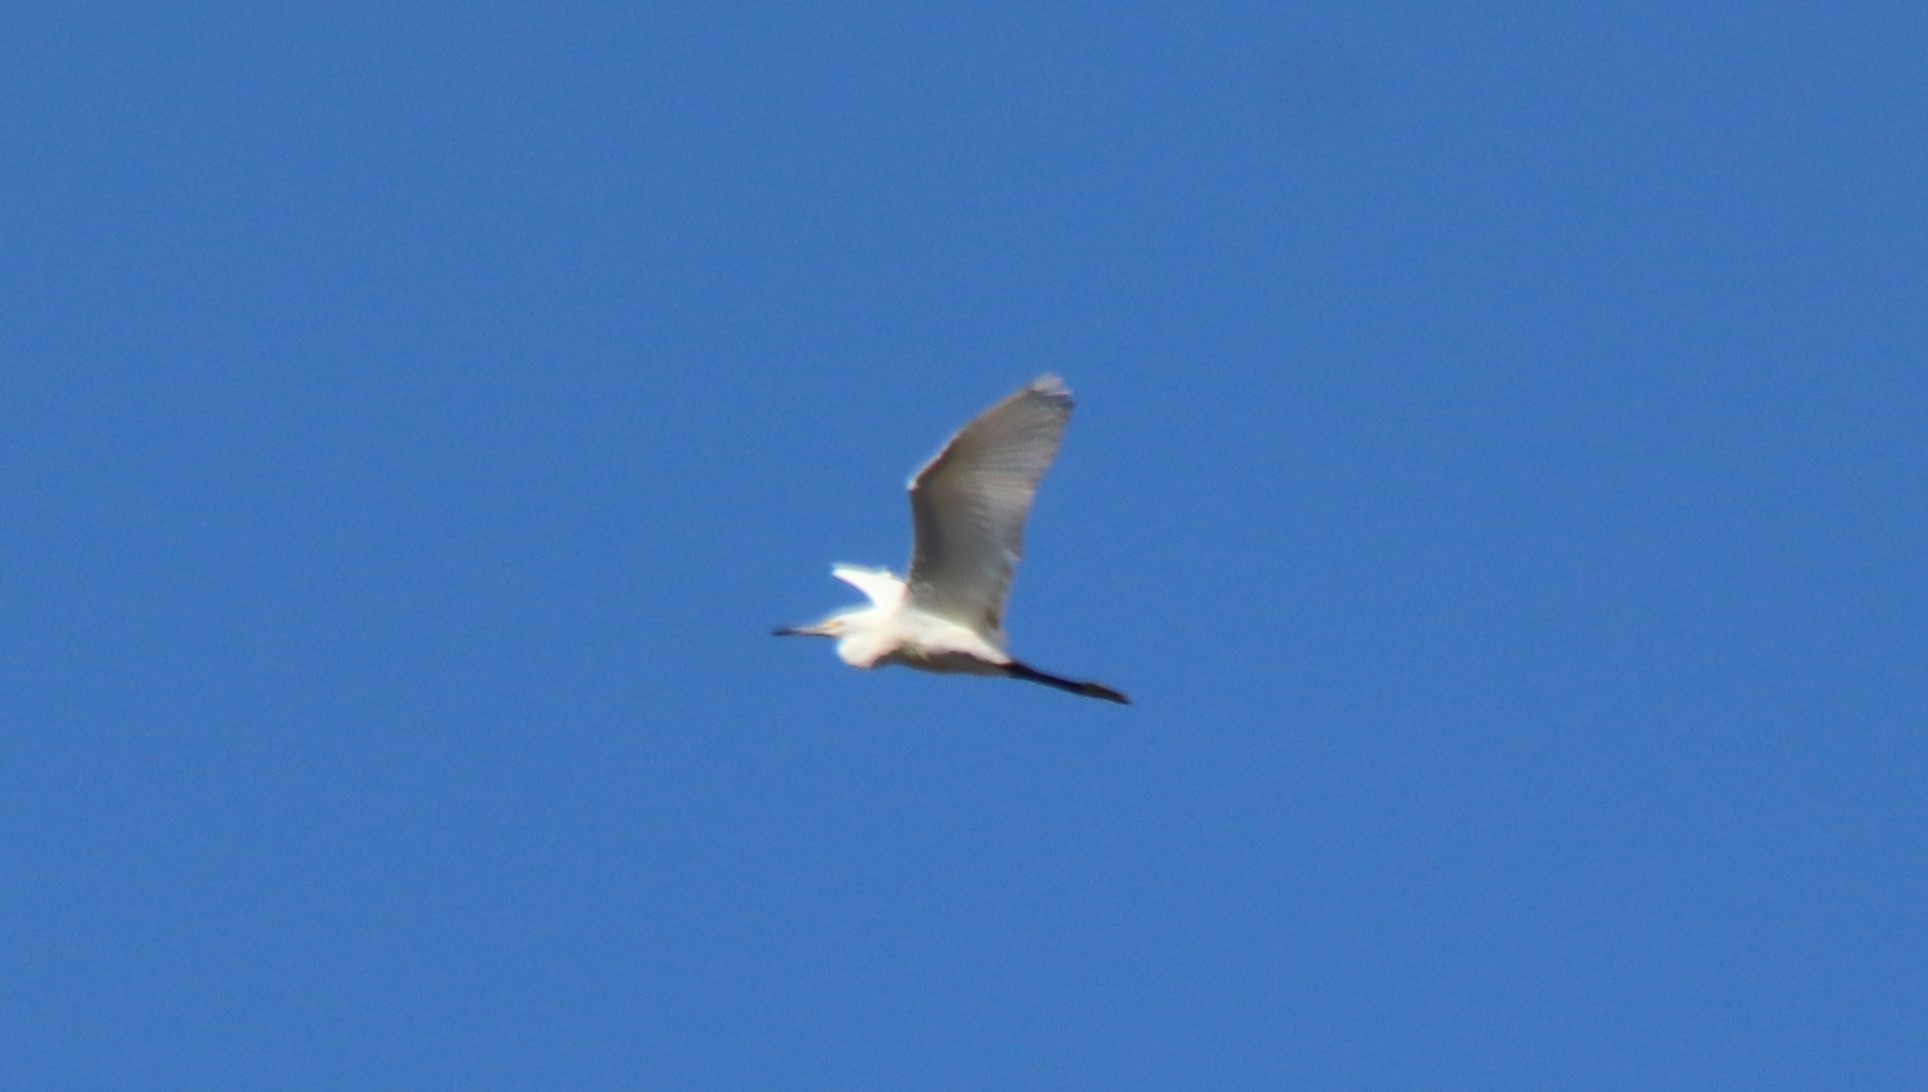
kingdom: Animalia
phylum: Chordata
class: Aves
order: Pelecaniformes
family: Ardeidae
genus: Egretta
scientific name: Egretta thula
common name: Snowy egret
